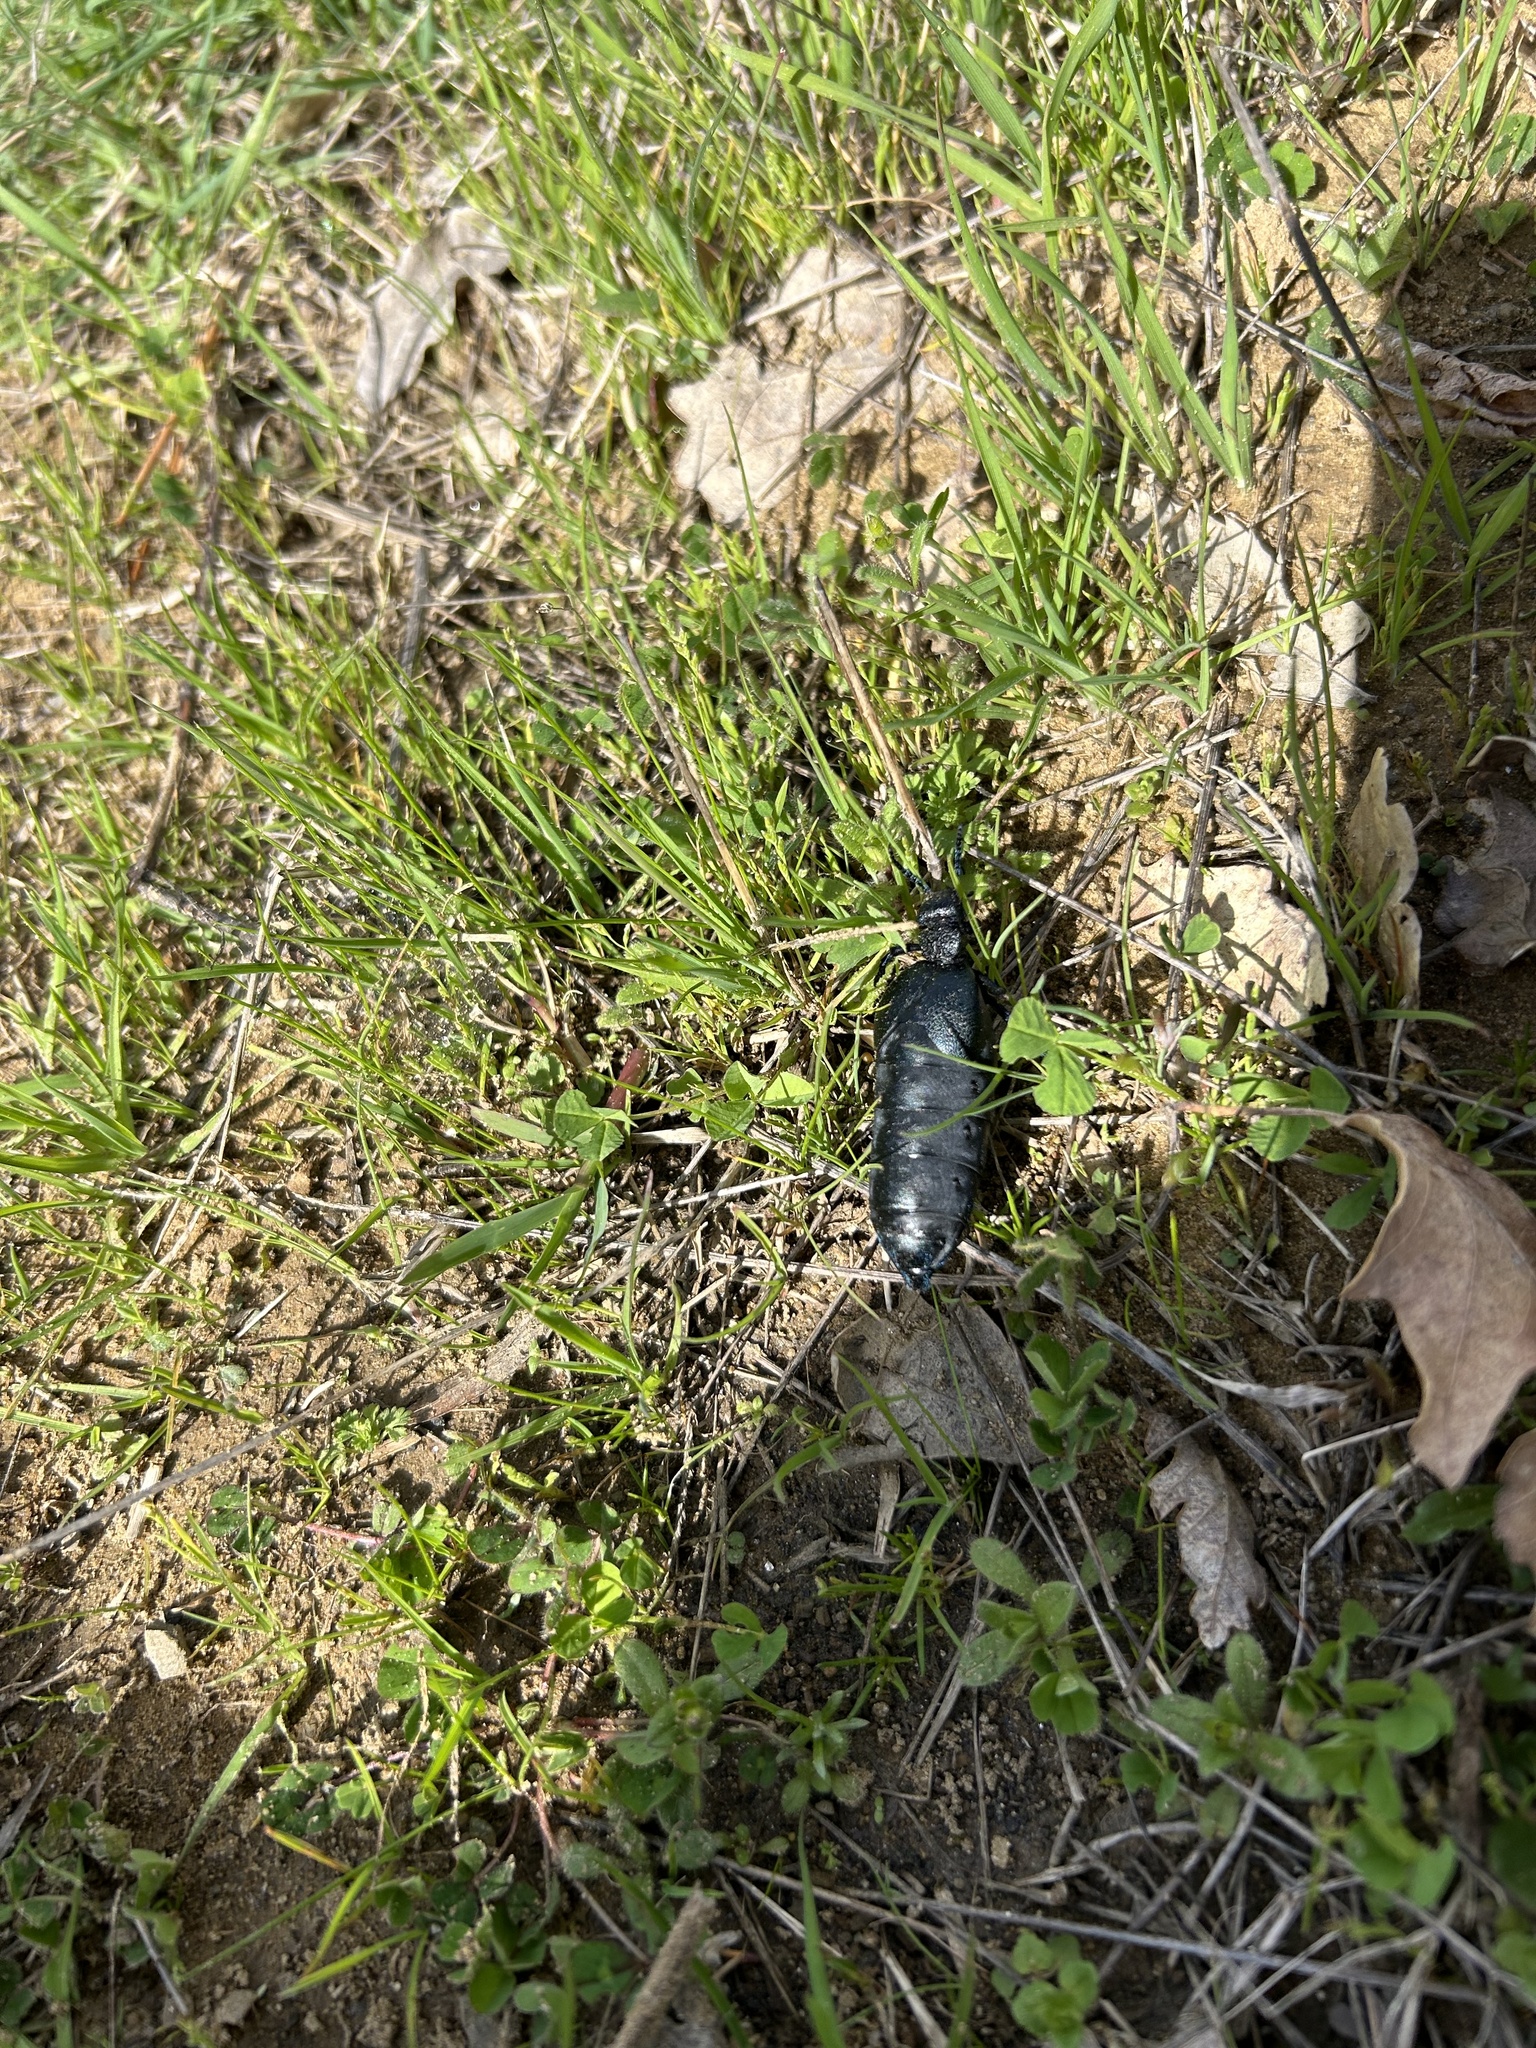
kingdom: Animalia
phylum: Arthropoda
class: Insecta
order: Coleoptera
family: Meloidae
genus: Meloe
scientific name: Meloe cicatricosus
